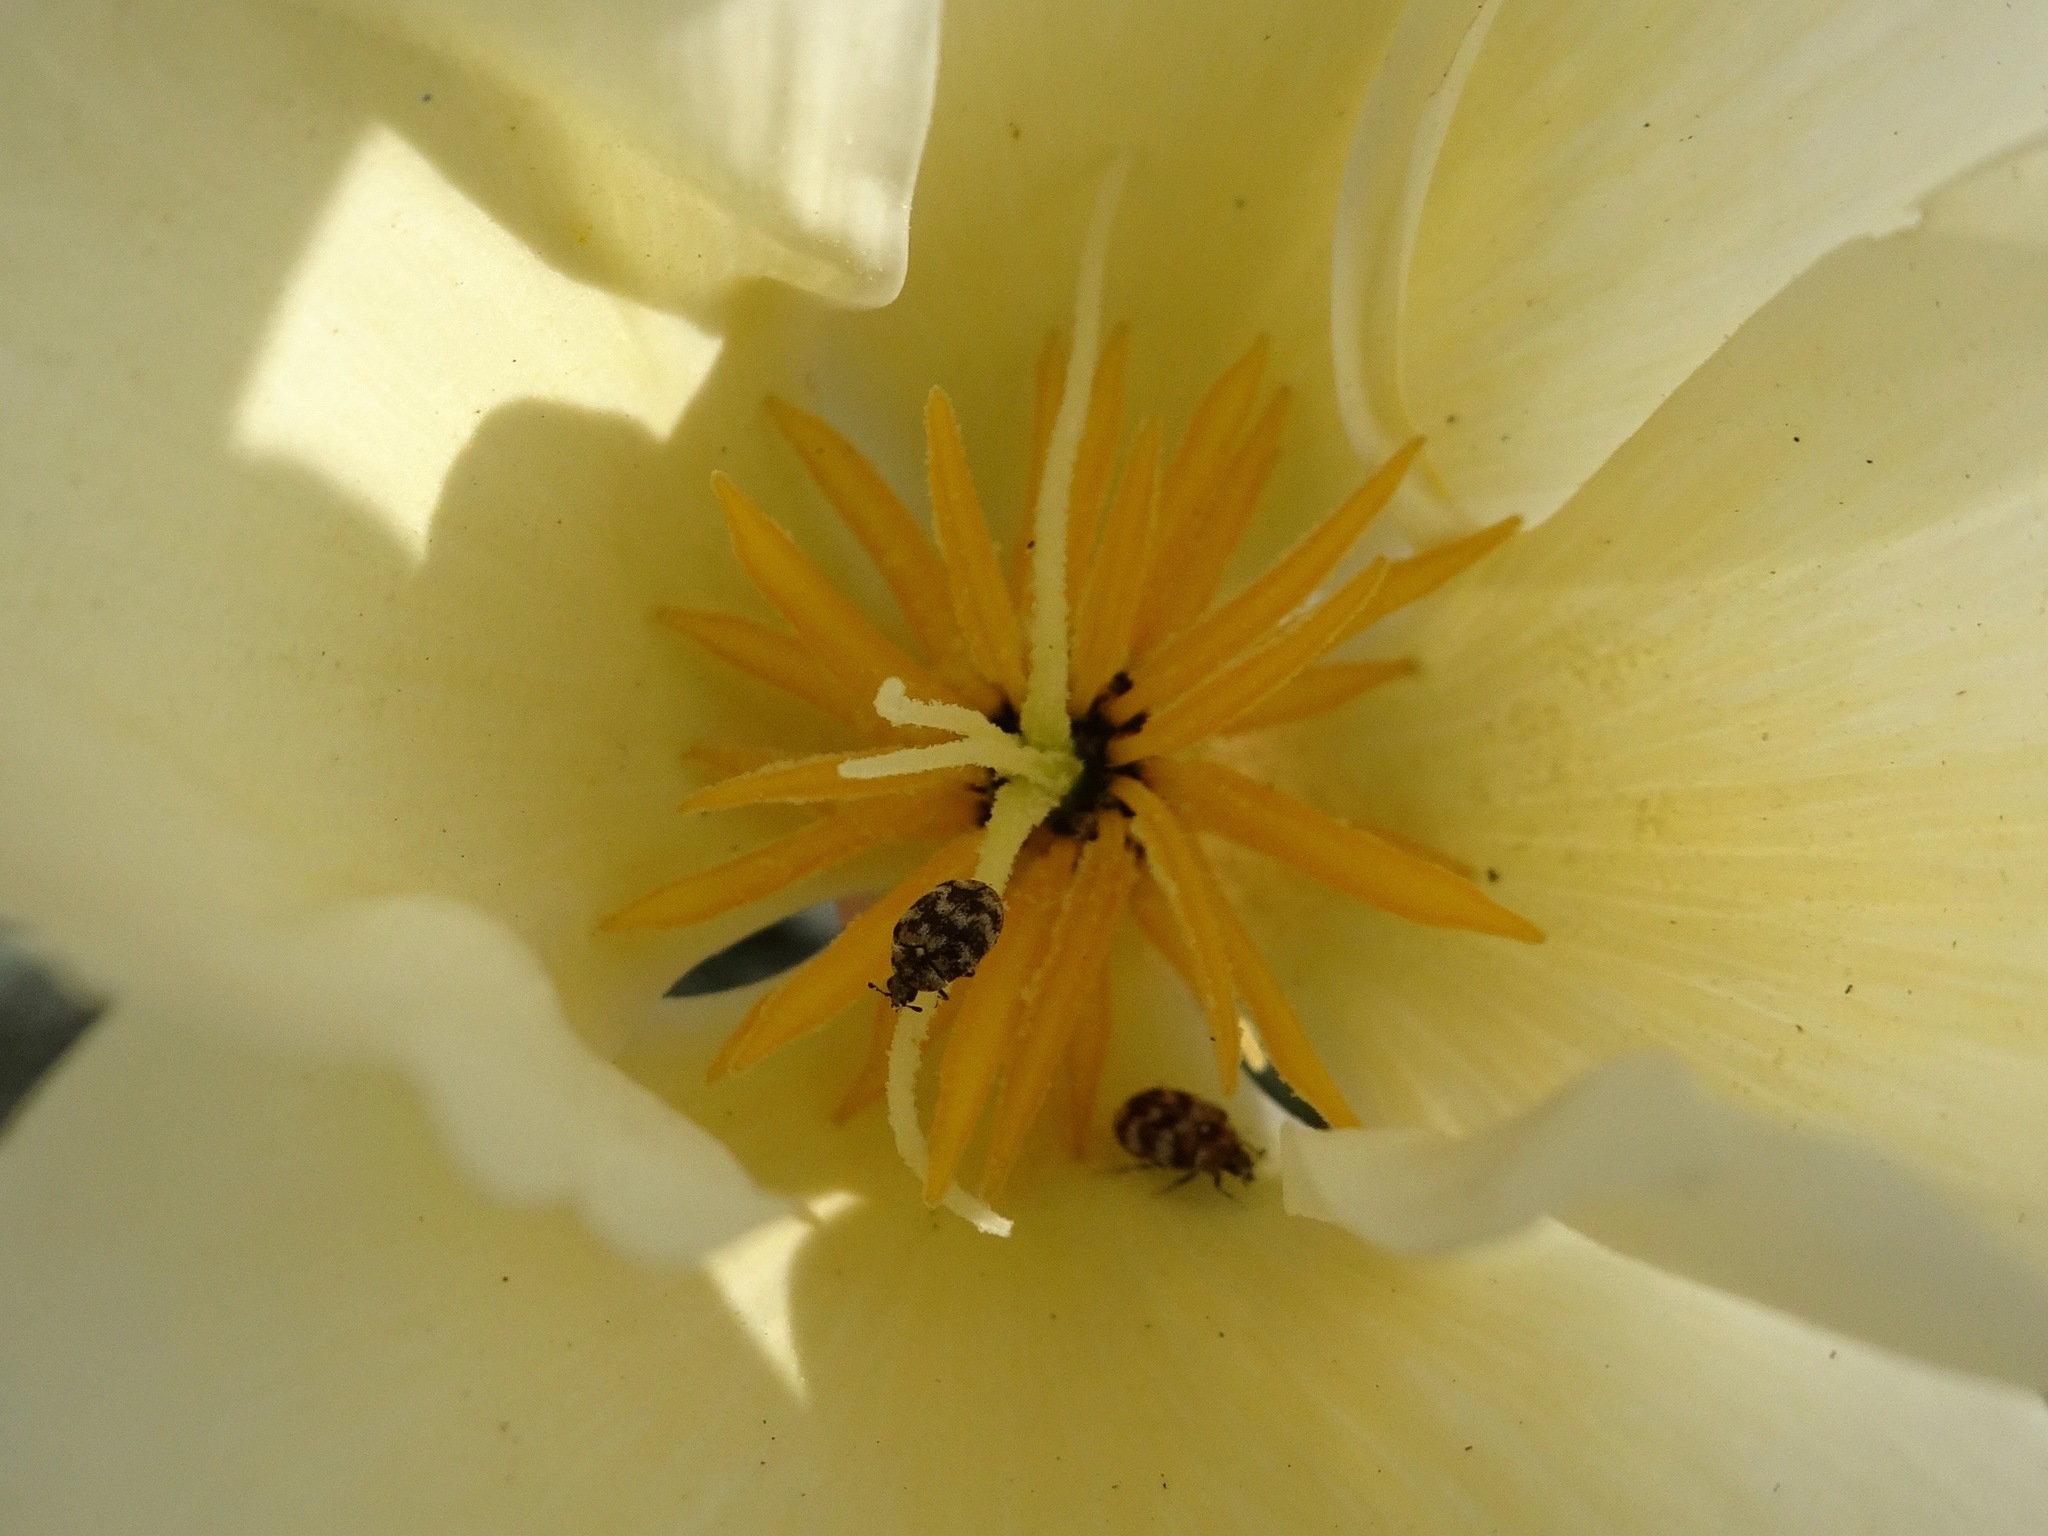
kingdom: Animalia
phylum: Arthropoda
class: Insecta
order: Coleoptera
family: Dermestidae
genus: Anthrenus
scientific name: Anthrenus verbasci
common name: Varied carpet beetle
